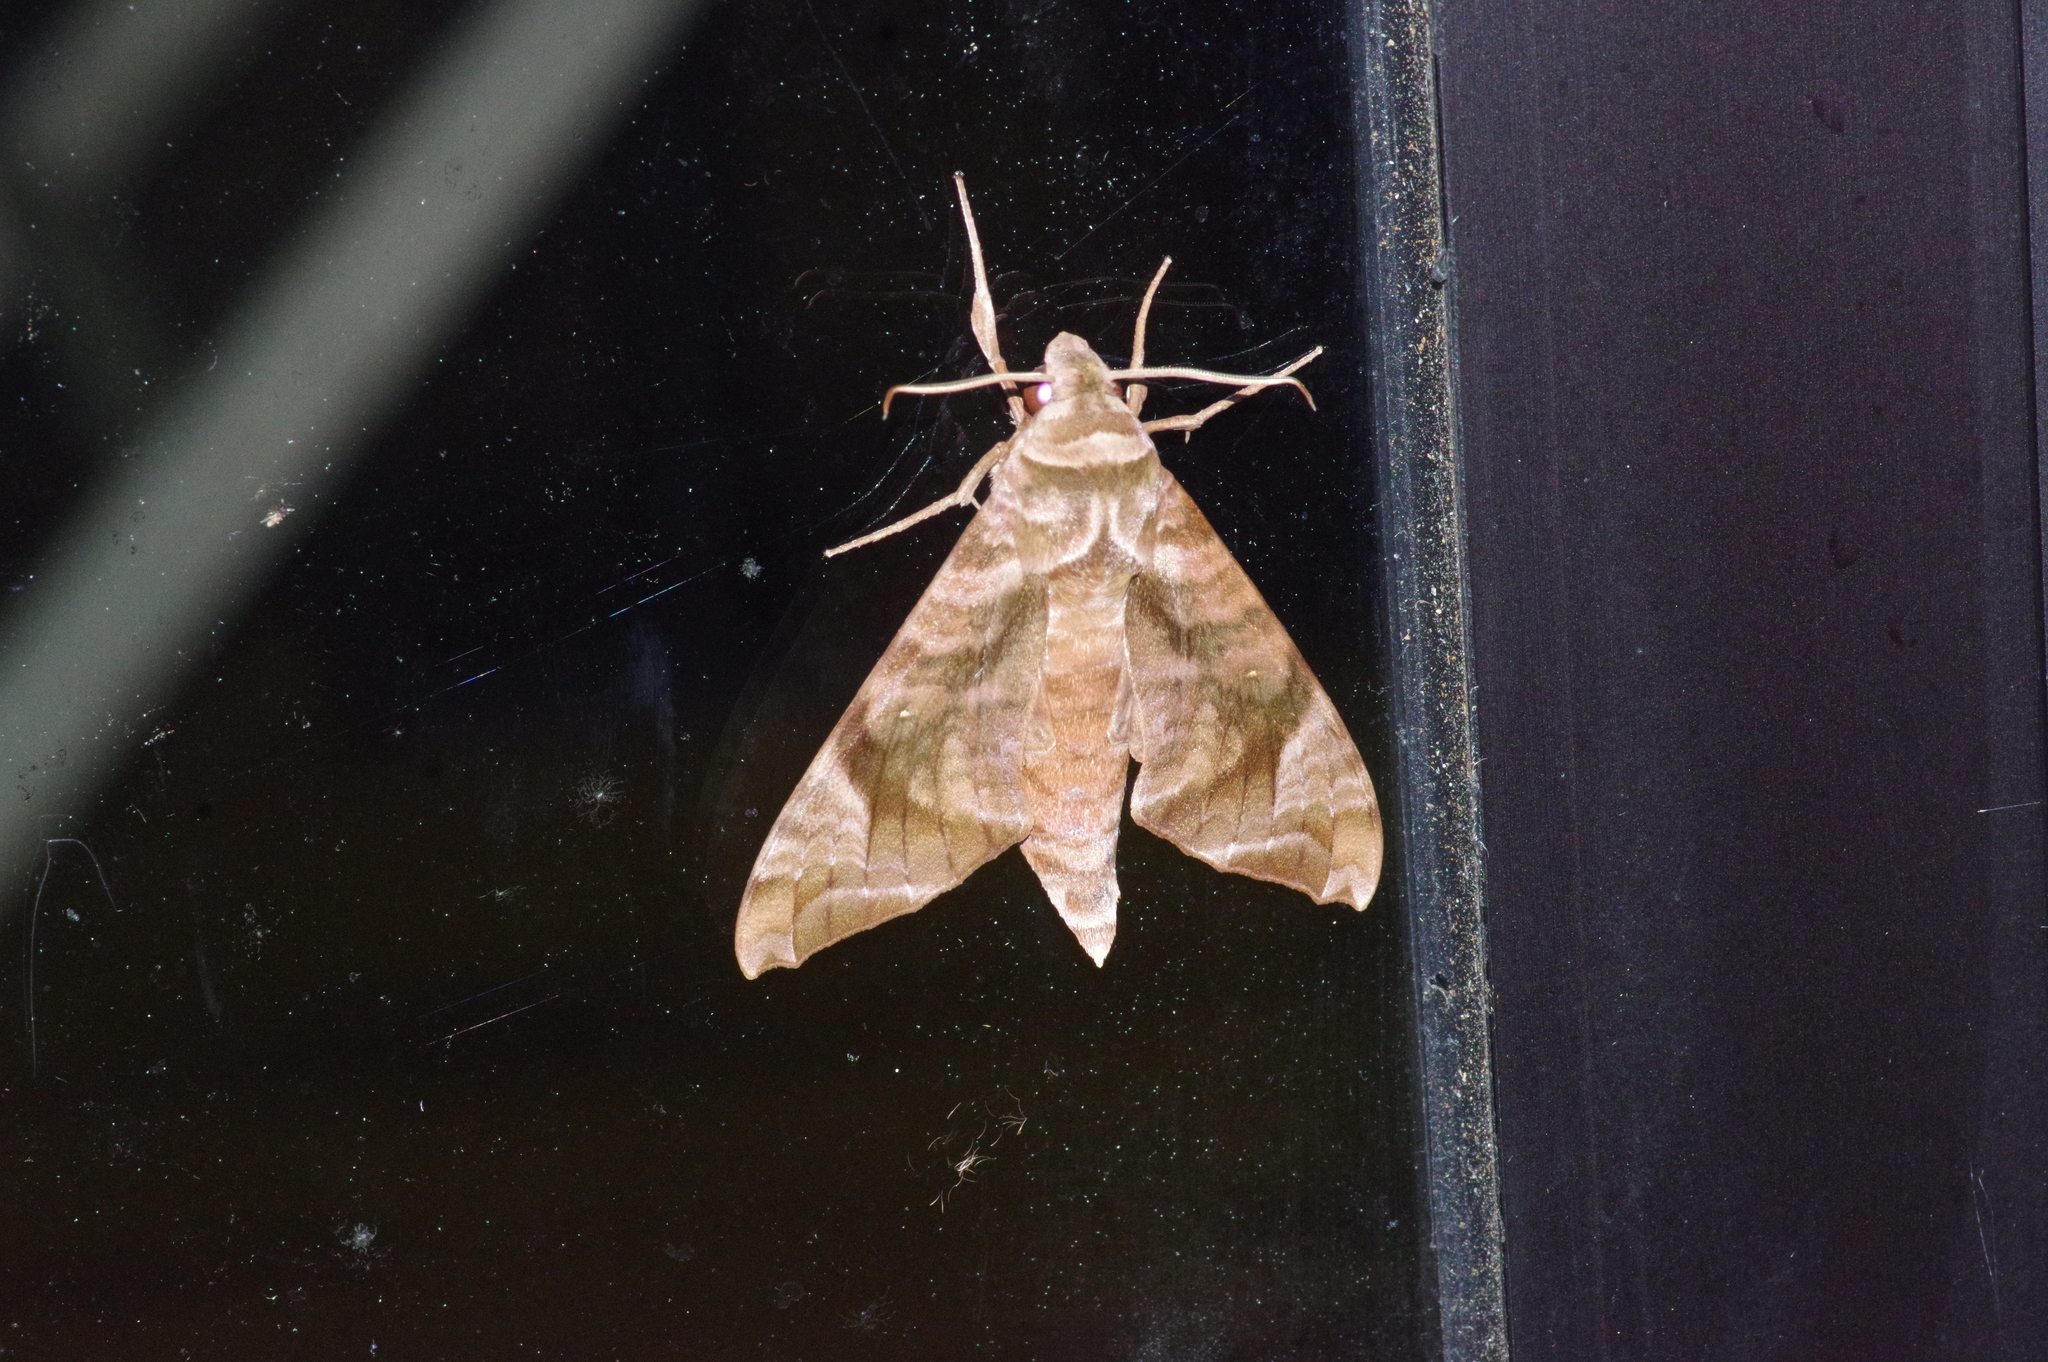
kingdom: Animalia
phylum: Arthropoda
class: Insecta
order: Lepidoptera
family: Sphingidae
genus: Acosmeryx
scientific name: Acosmeryx castanea
